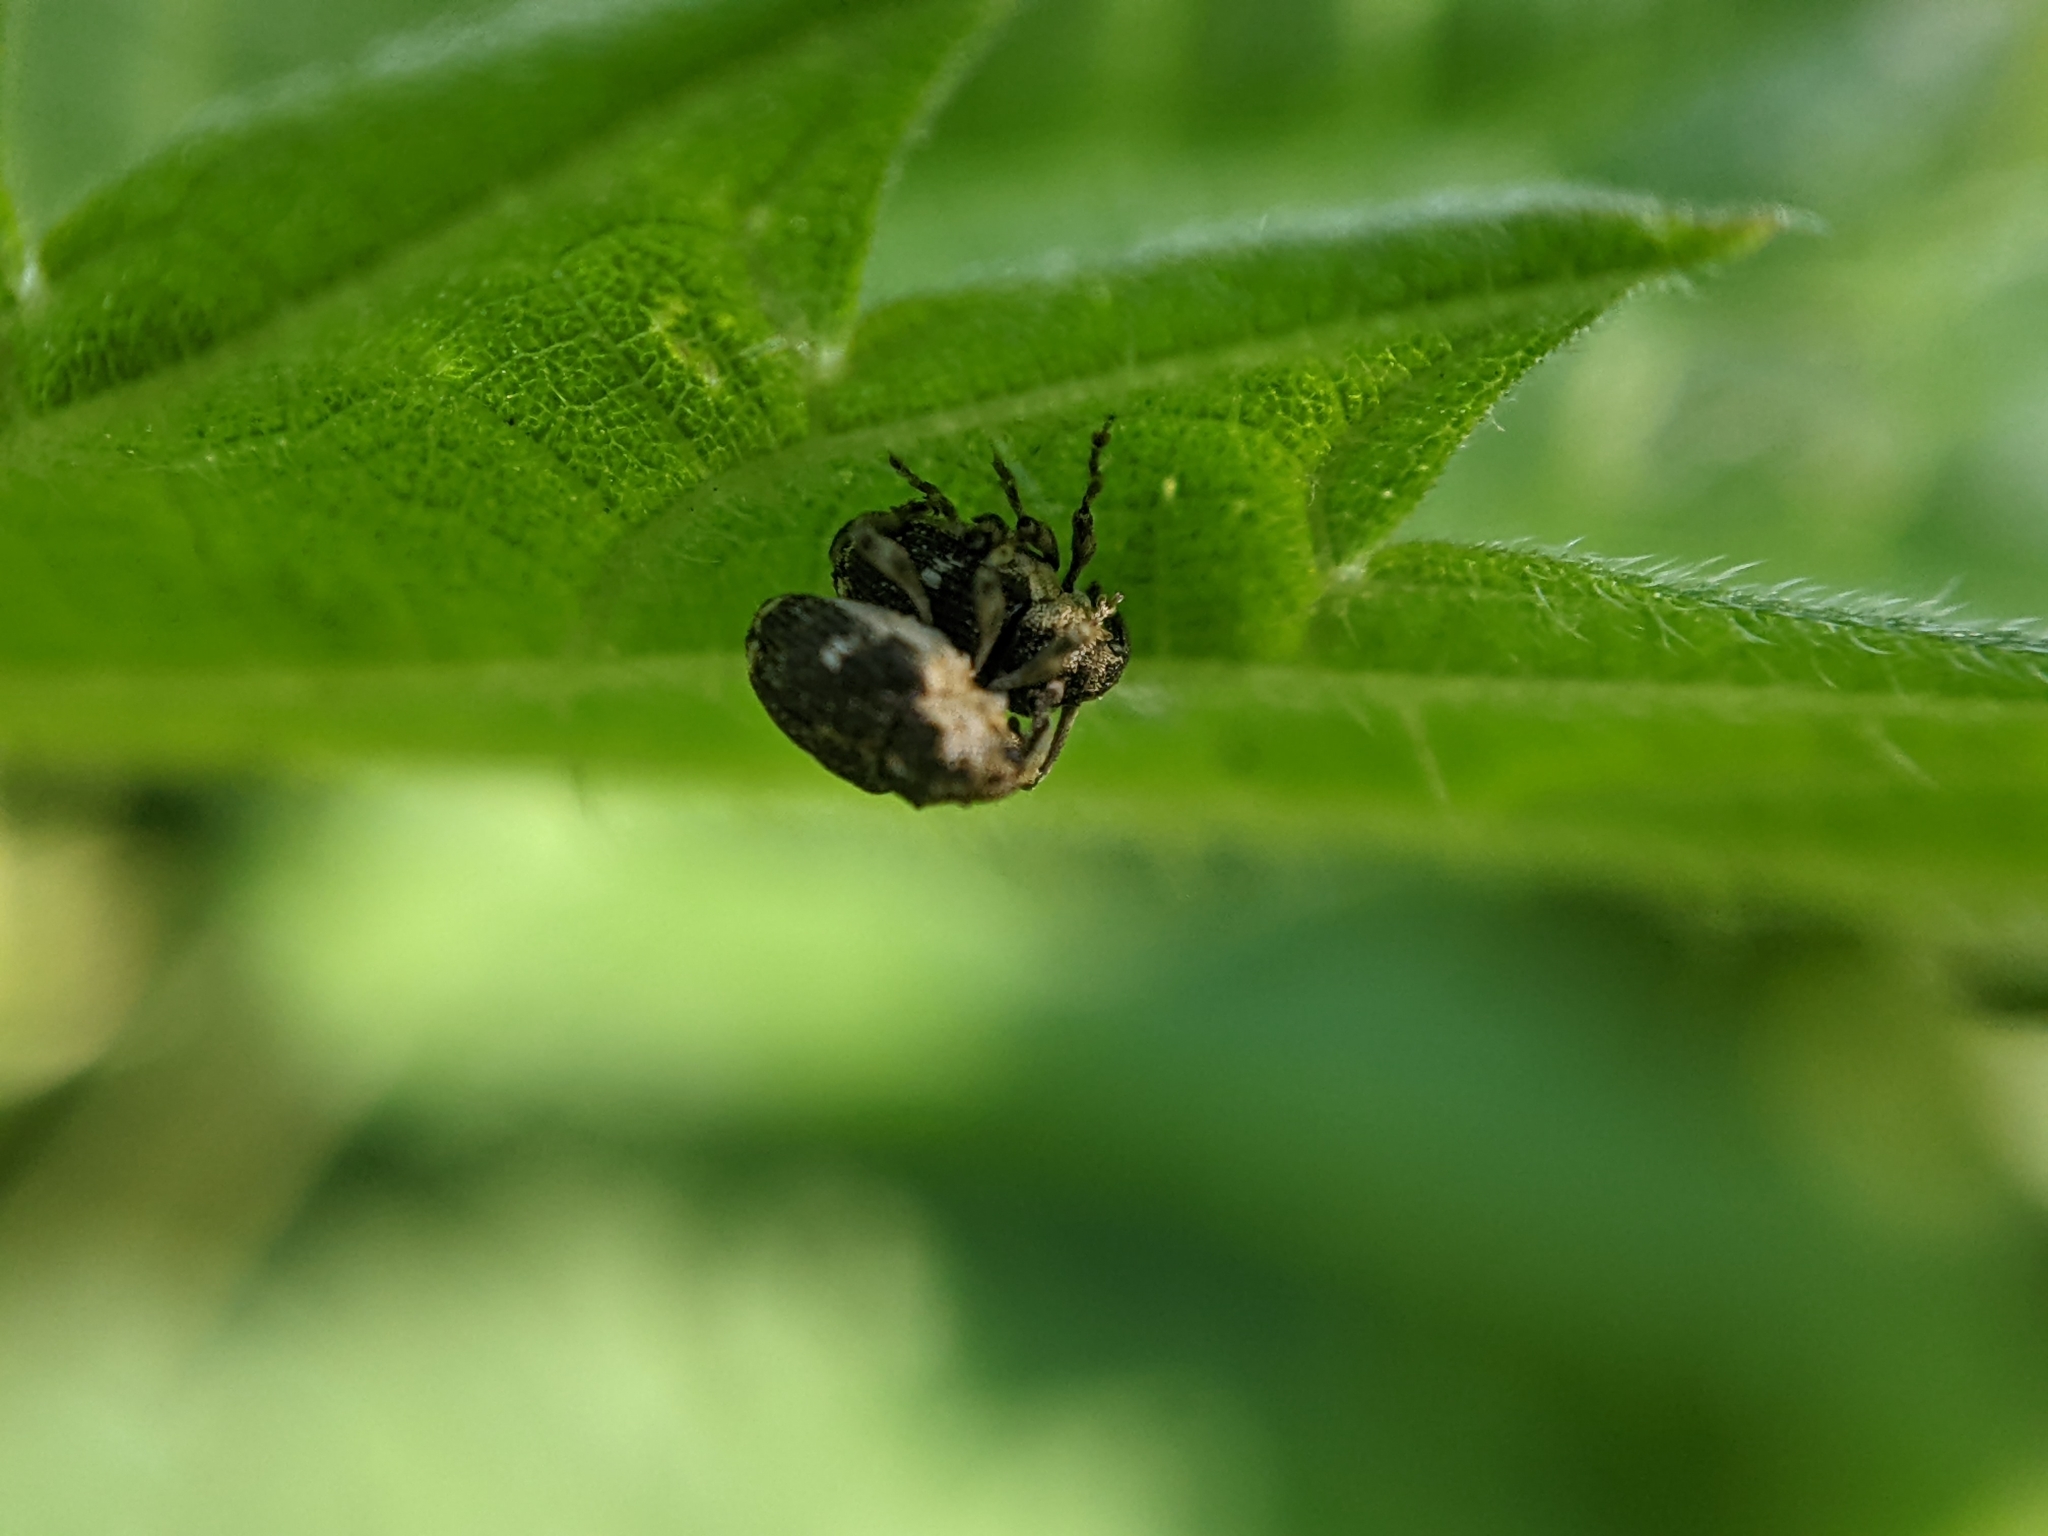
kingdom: Animalia
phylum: Arthropoda
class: Insecta
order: Coleoptera
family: Curculionidae
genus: Nedyus
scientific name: Nedyus quadrimaculatus
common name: Small nettle weevil
